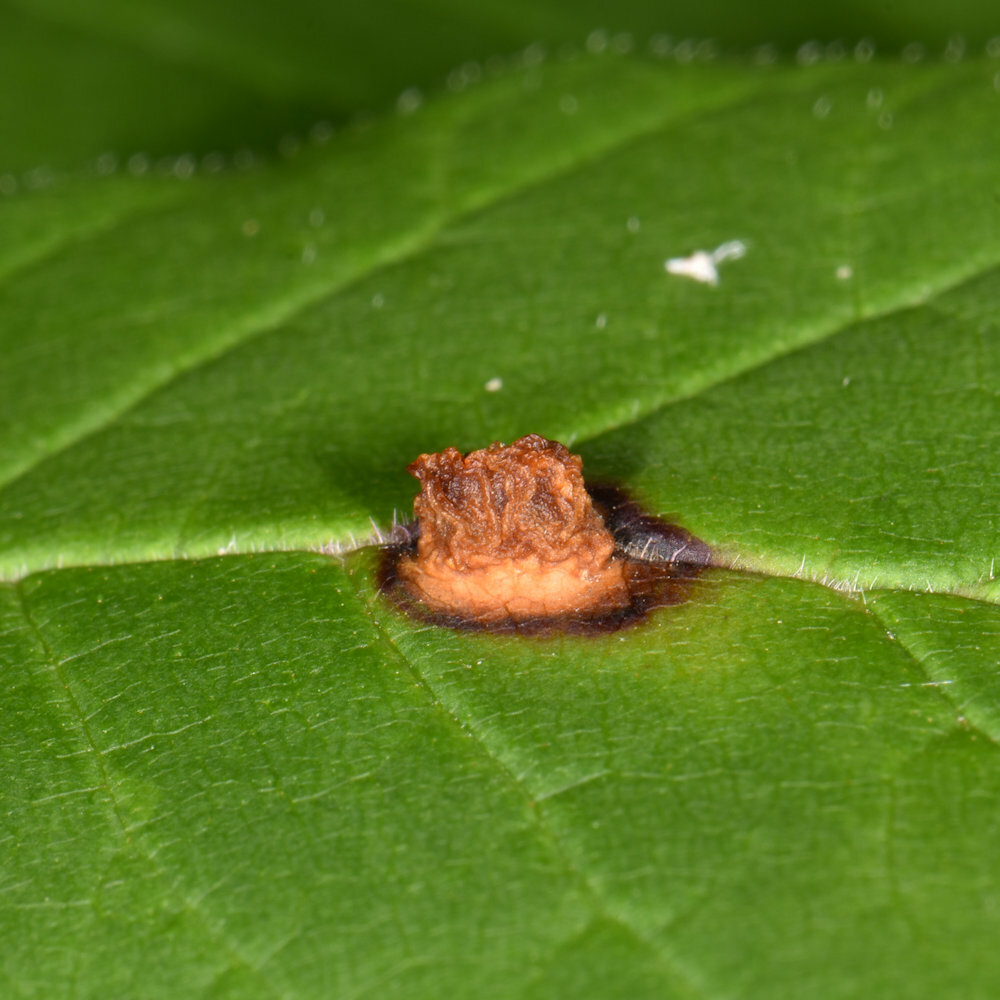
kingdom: Animalia
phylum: Arthropoda
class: Insecta
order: Diptera
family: Cecidomyiidae
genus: Dasineura
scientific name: Dasineura pellex
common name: Ash bullet gall midge
